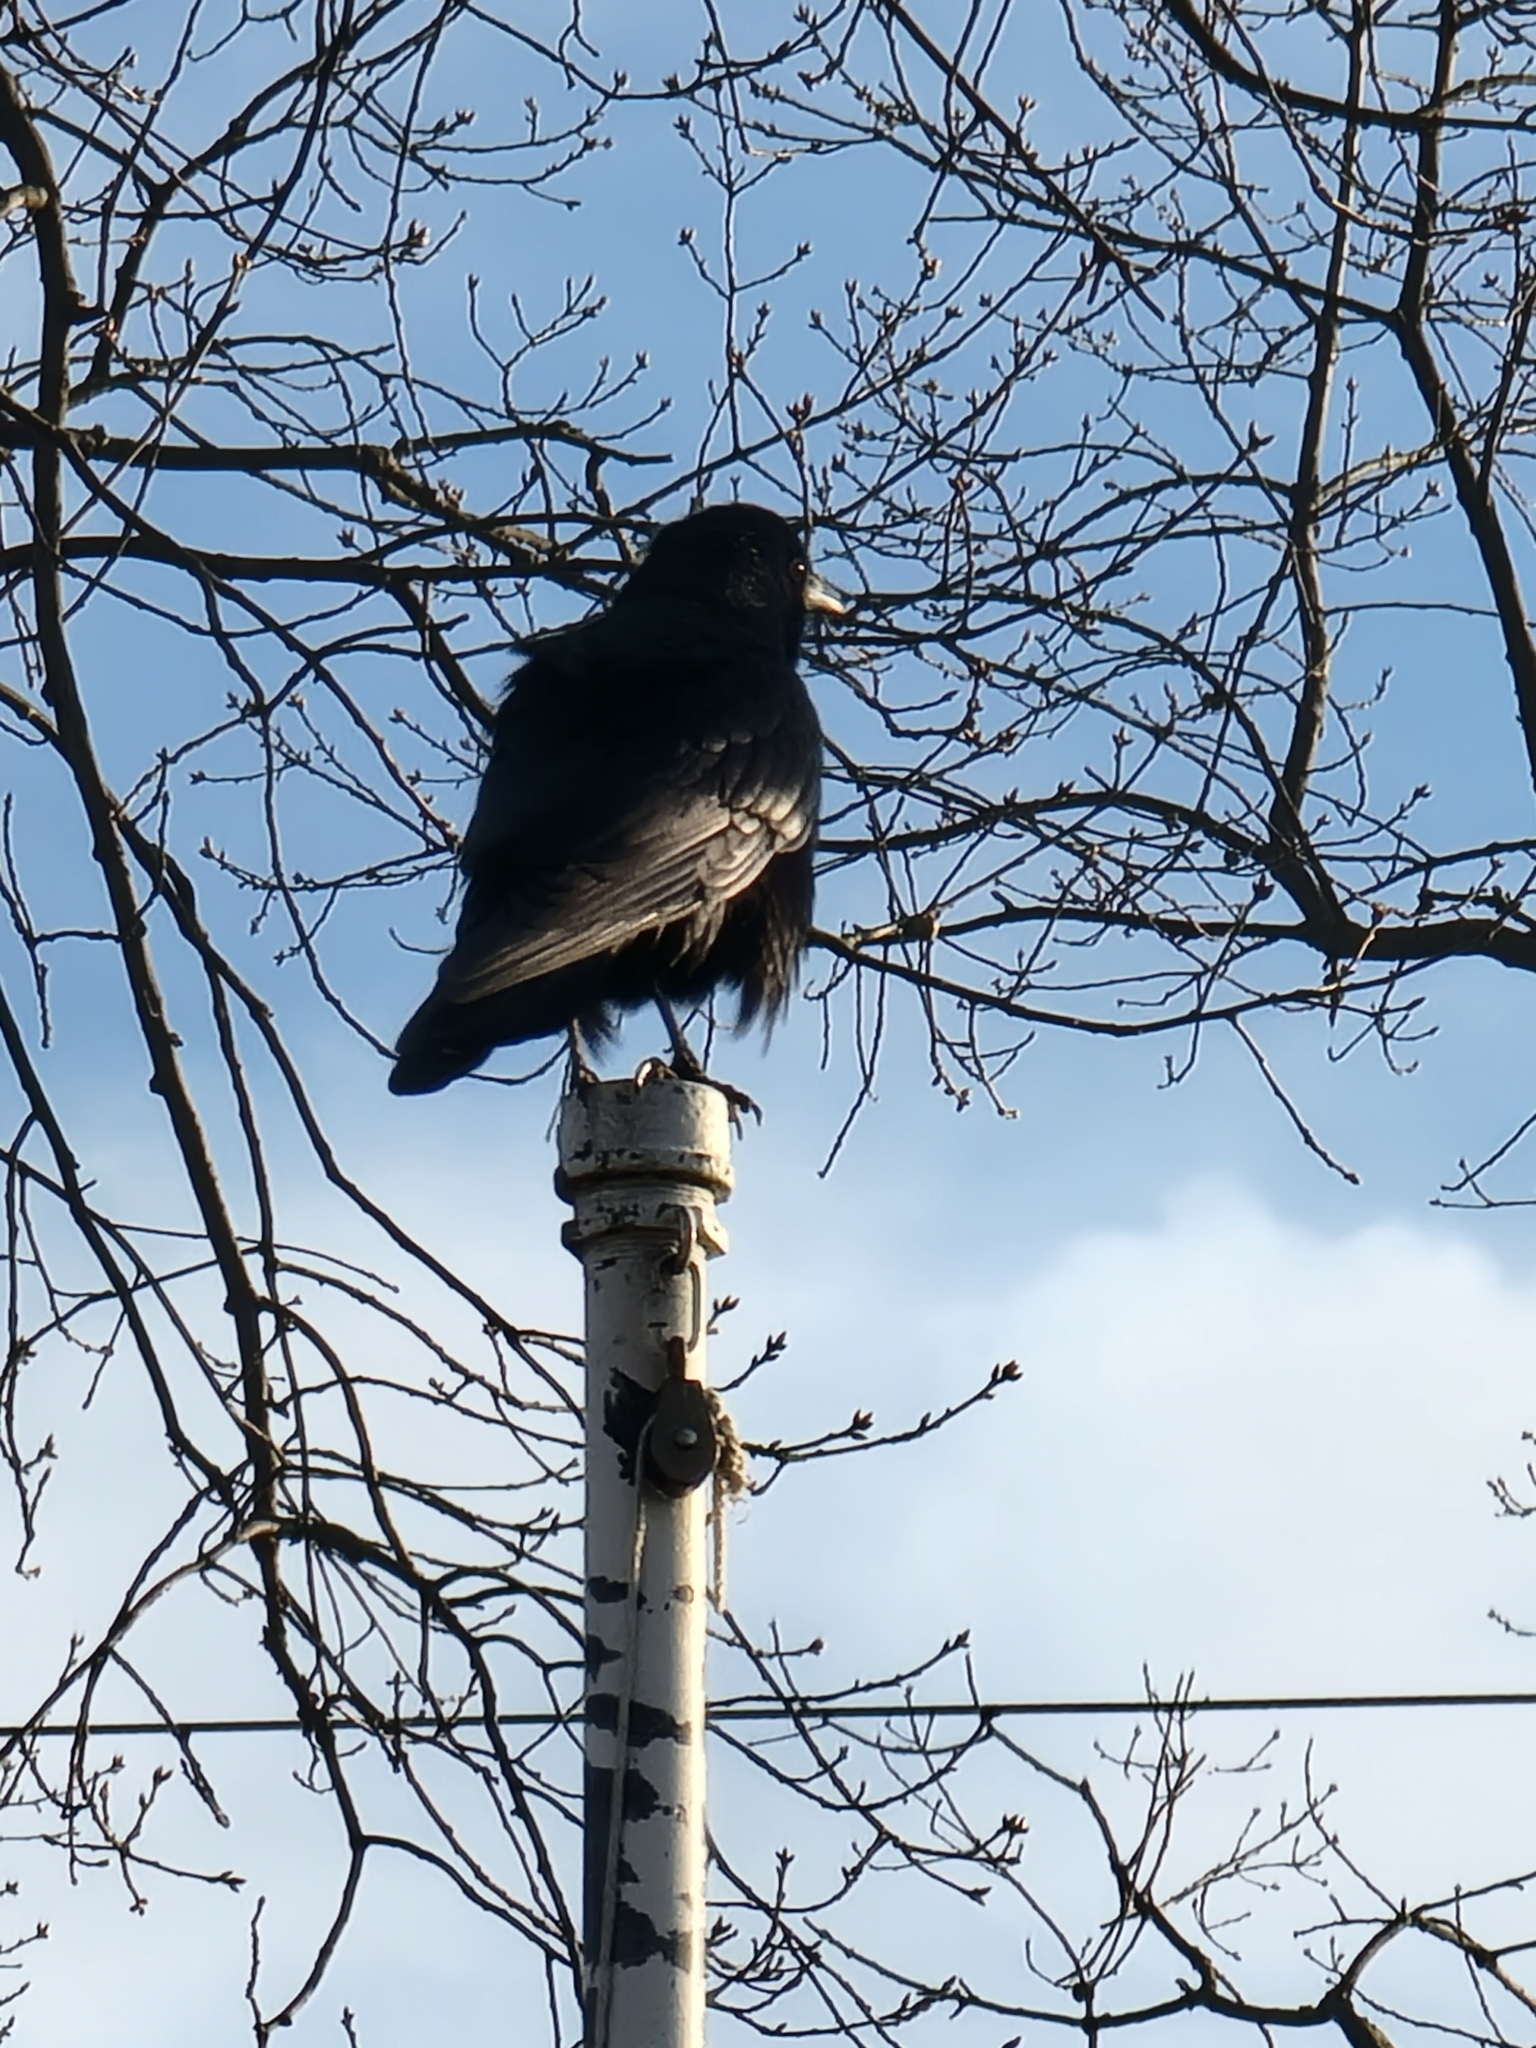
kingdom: Animalia
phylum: Chordata
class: Aves
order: Passeriformes
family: Corvidae
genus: Corvus
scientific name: Corvus ossifragus
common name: Fish crow
